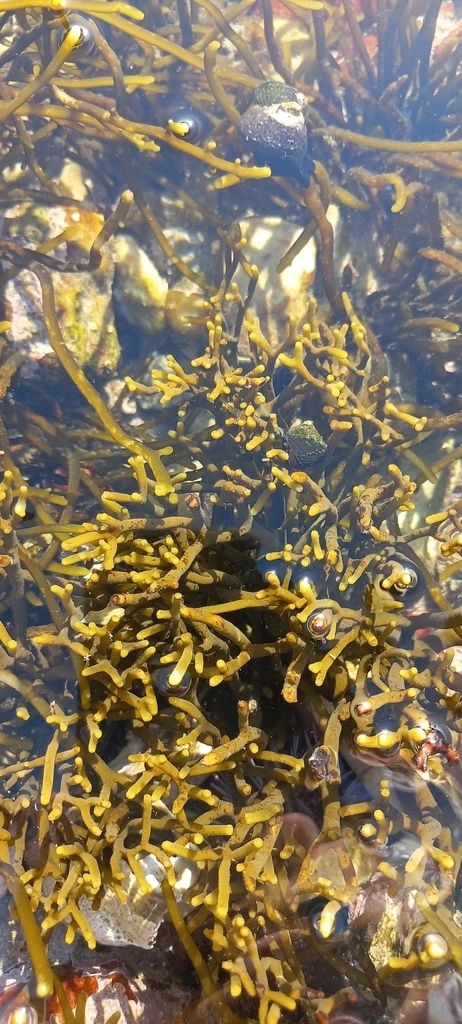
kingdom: Chromista
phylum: Ochrophyta
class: Phaeophyceae
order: Fucales
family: Bifurcariopsidaceae
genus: Bifurcariopsis
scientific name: Bifurcariopsis
